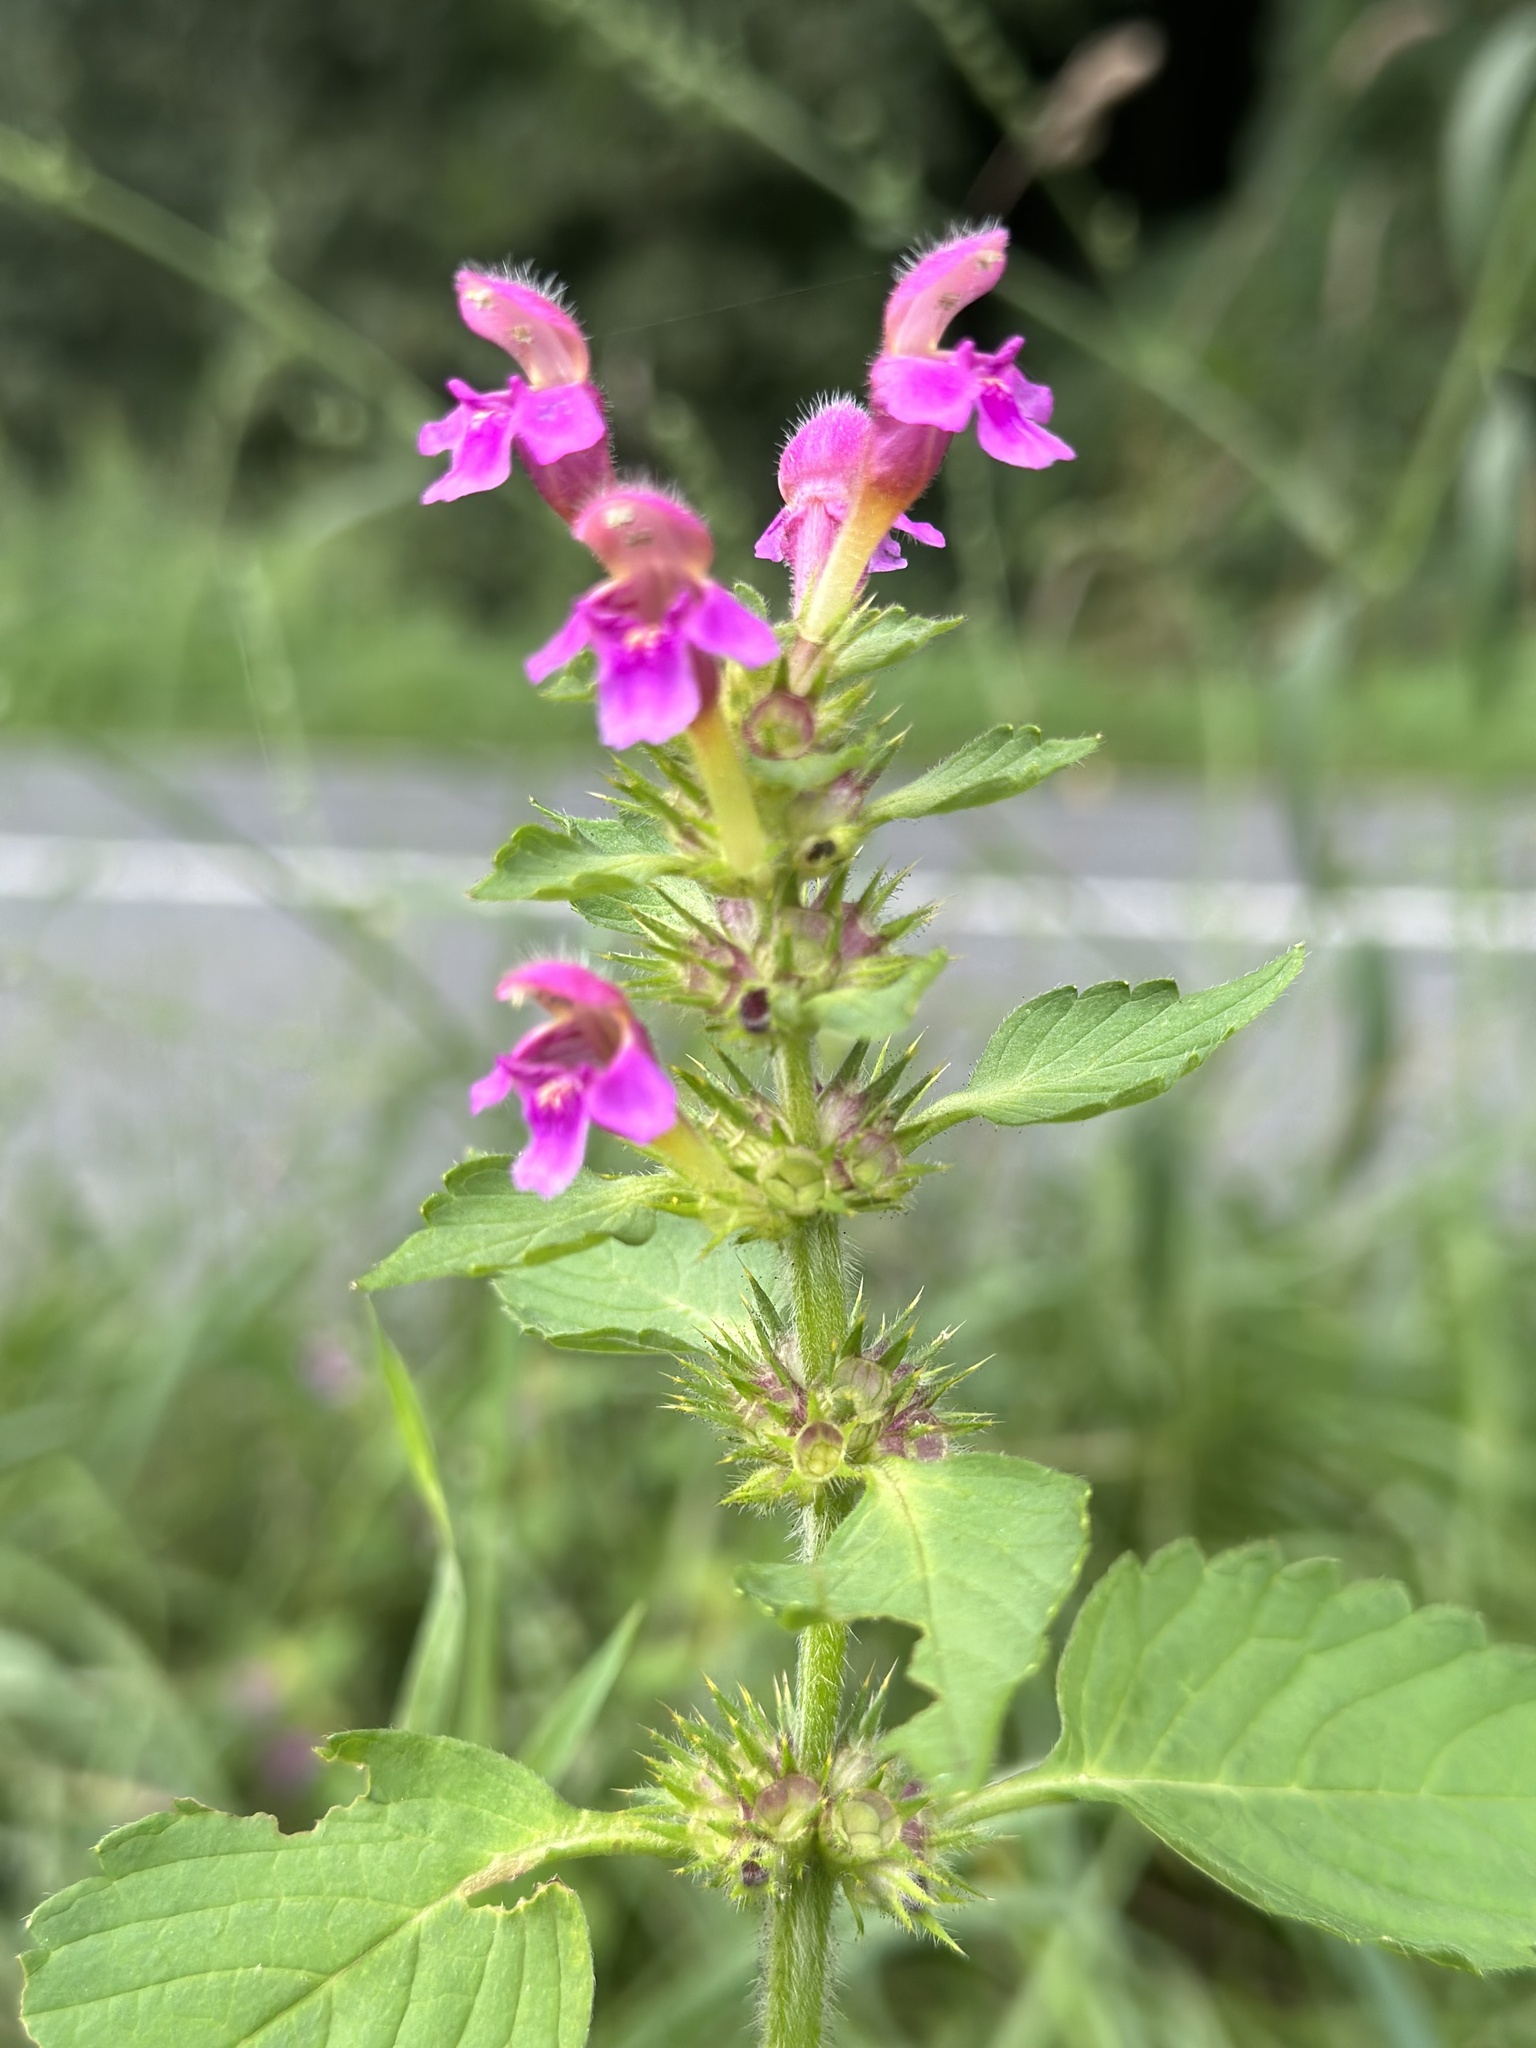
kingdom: Plantae
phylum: Tracheophyta
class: Magnoliopsida
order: Lamiales
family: Lamiaceae
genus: Galeopsis
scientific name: Galeopsis pubescens
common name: Downy hemp-nettle
